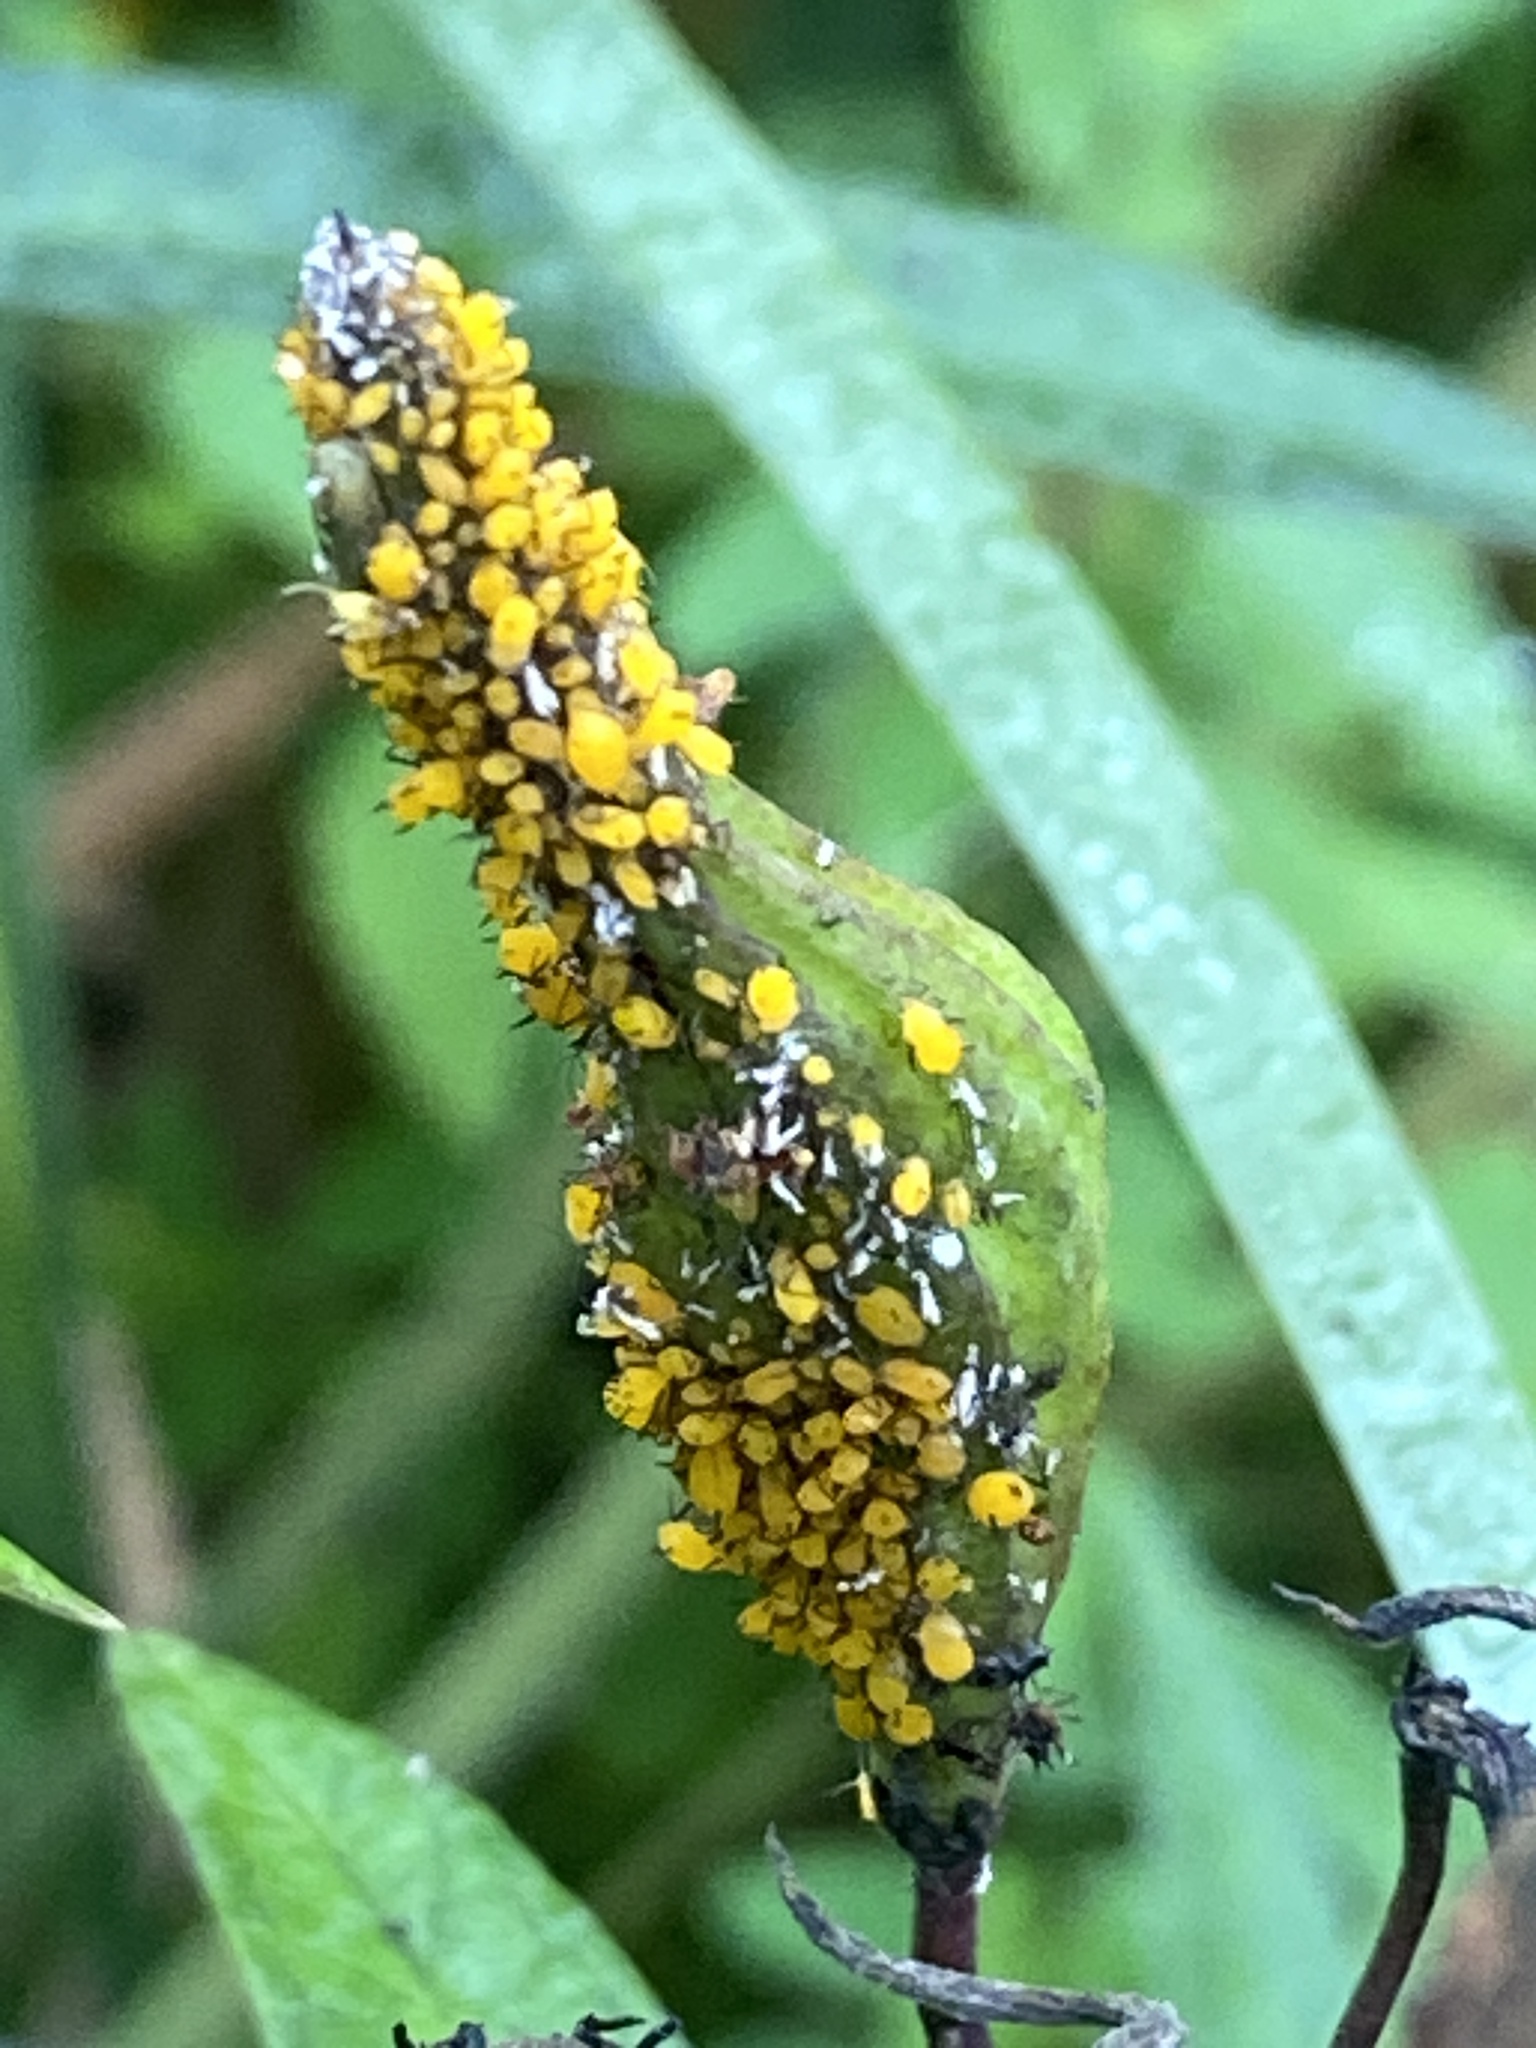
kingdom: Animalia
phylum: Arthropoda
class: Insecta
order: Hemiptera
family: Aphididae
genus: Aphis
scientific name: Aphis nerii
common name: Oleander aphid
